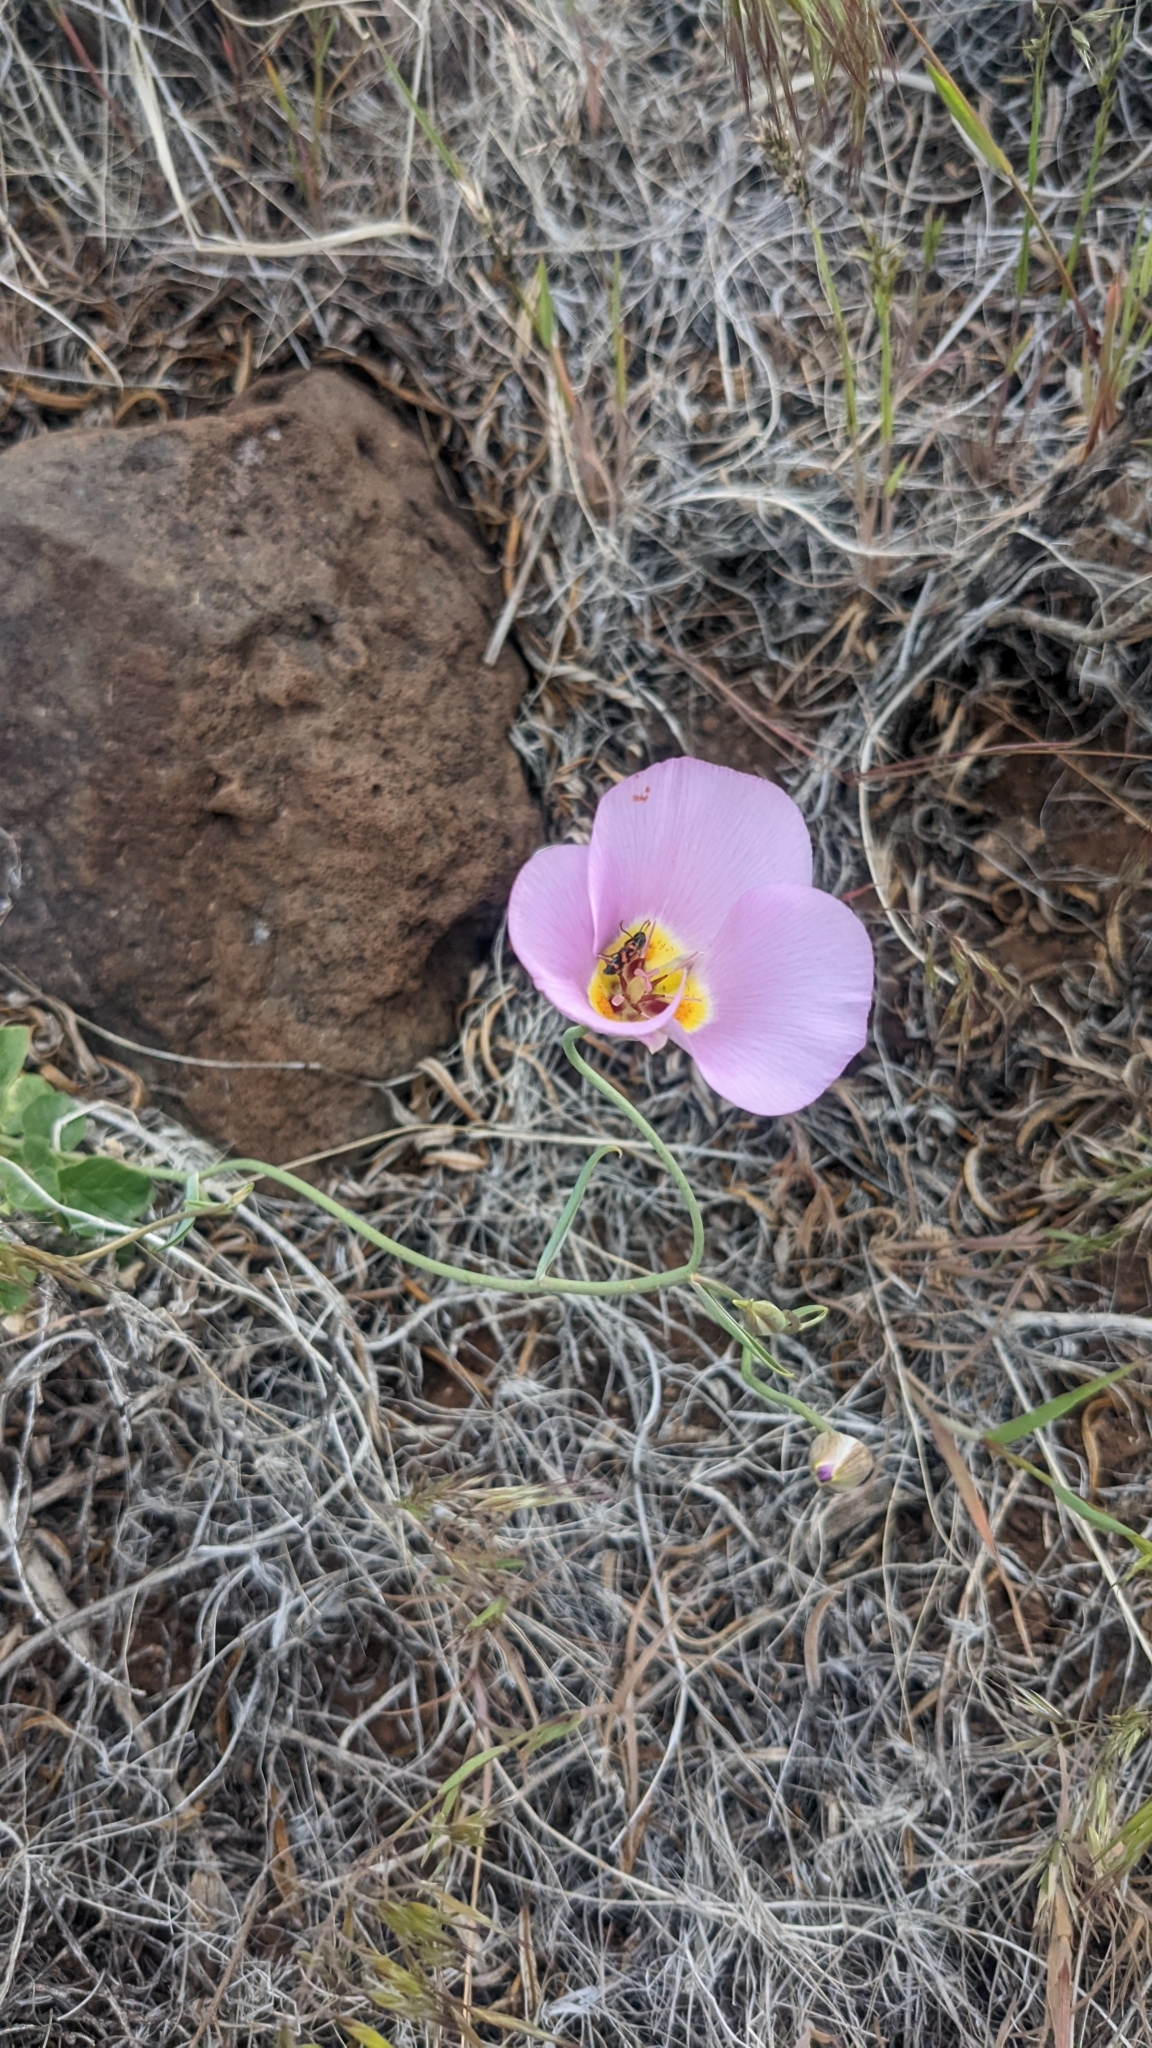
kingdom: Plantae
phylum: Tracheophyta
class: Liliopsida
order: Liliales
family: Liliaceae
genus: Calochortus
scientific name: Calochortus flexuosus
